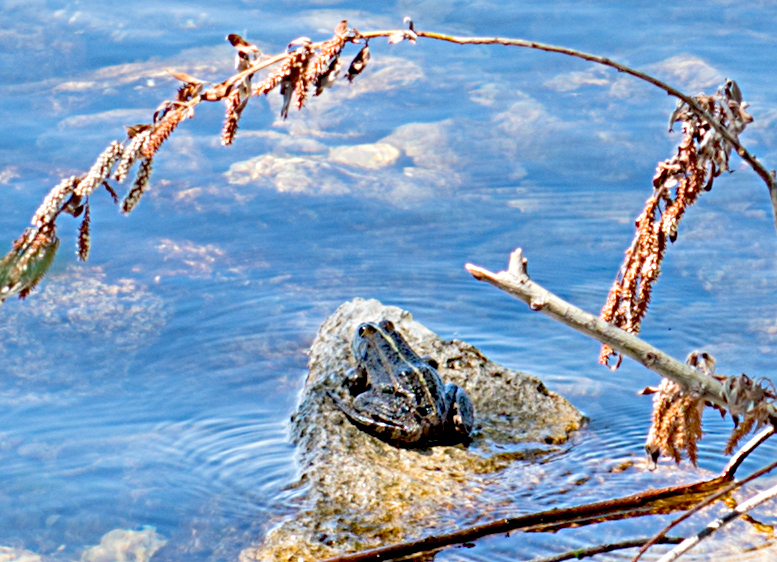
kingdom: Animalia
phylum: Chordata
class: Amphibia
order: Anura
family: Ranidae
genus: Pelophylax
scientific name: Pelophylax kurtmuelleri
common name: Balkan water frog
